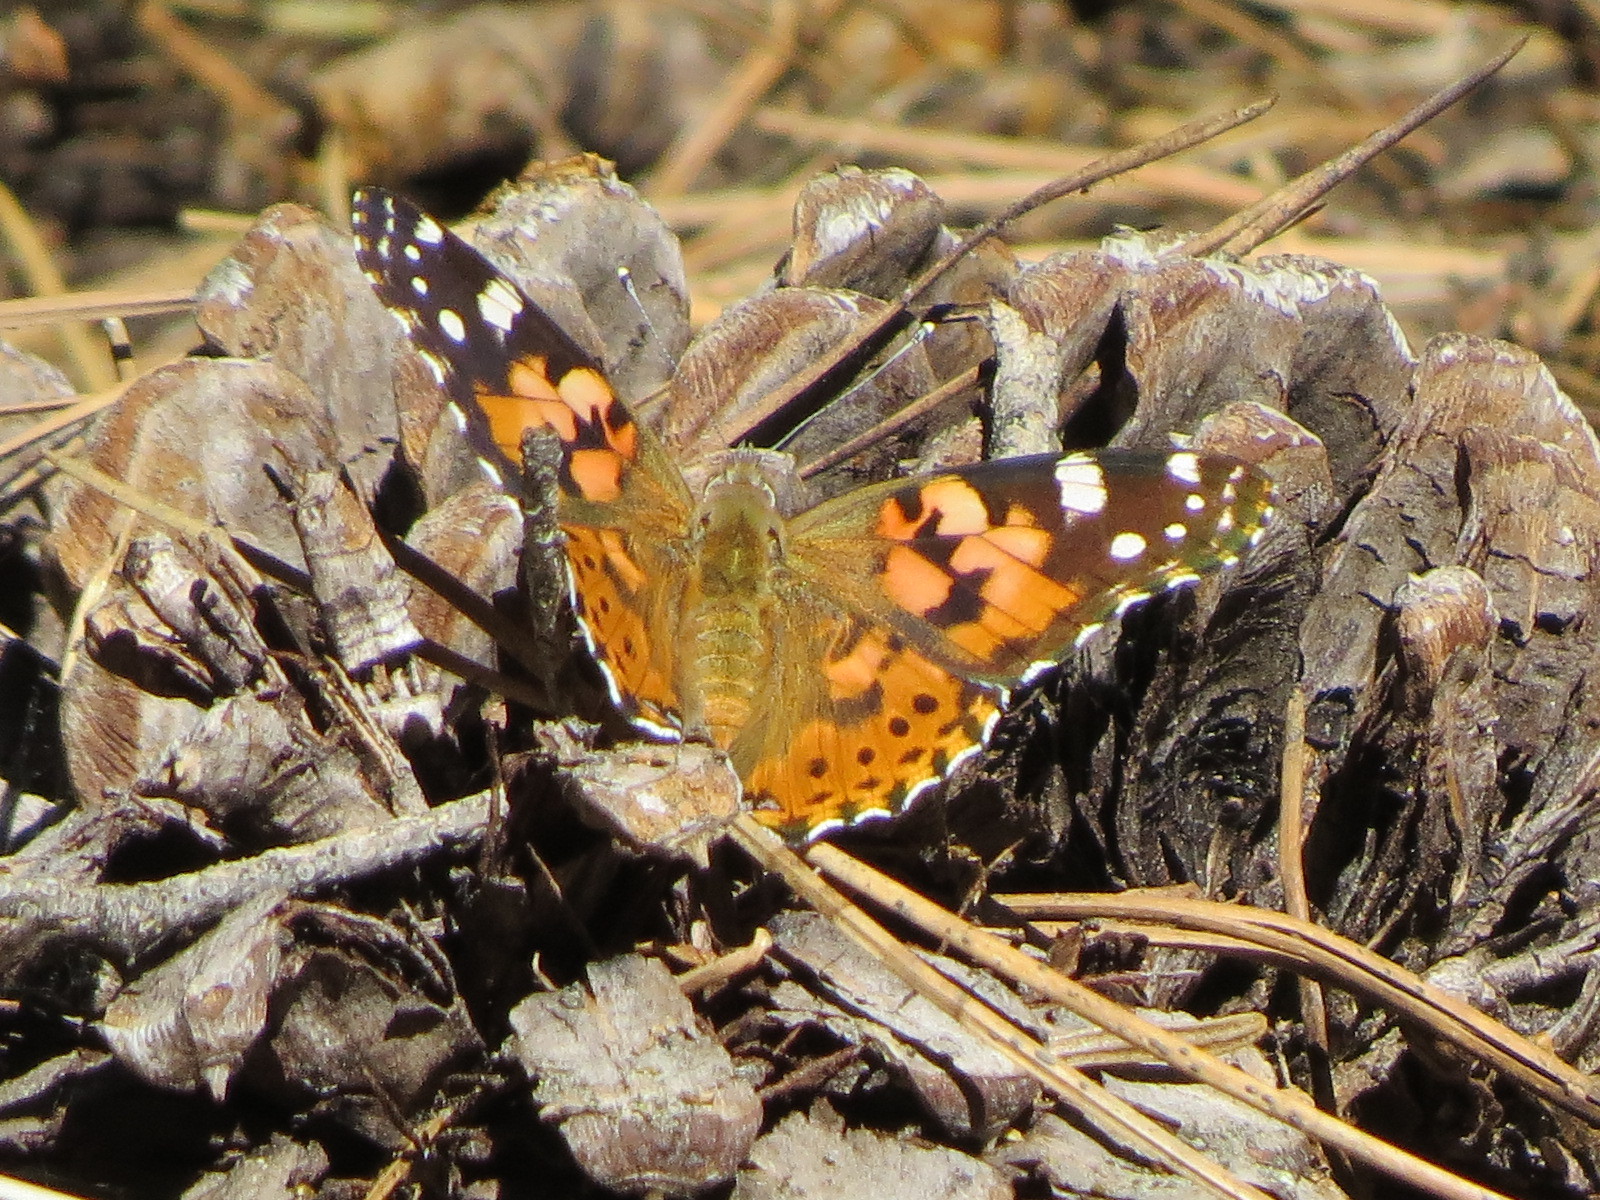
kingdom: Animalia
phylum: Arthropoda
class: Insecta
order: Lepidoptera
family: Nymphalidae
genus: Vanessa
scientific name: Vanessa cardui
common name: Painted lady
